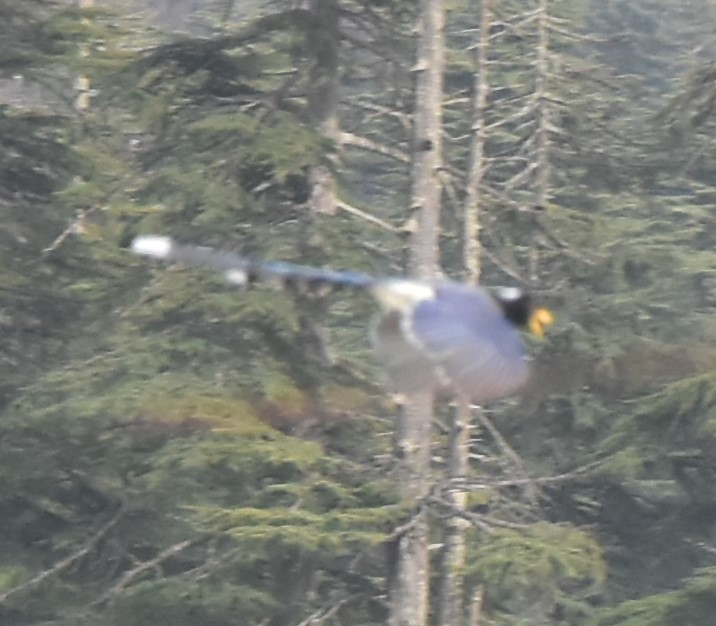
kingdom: Animalia
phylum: Chordata
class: Aves
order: Passeriformes
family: Corvidae
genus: Urocissa
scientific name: Urocissa flavirostris
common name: Yellow-billed blue magpie
